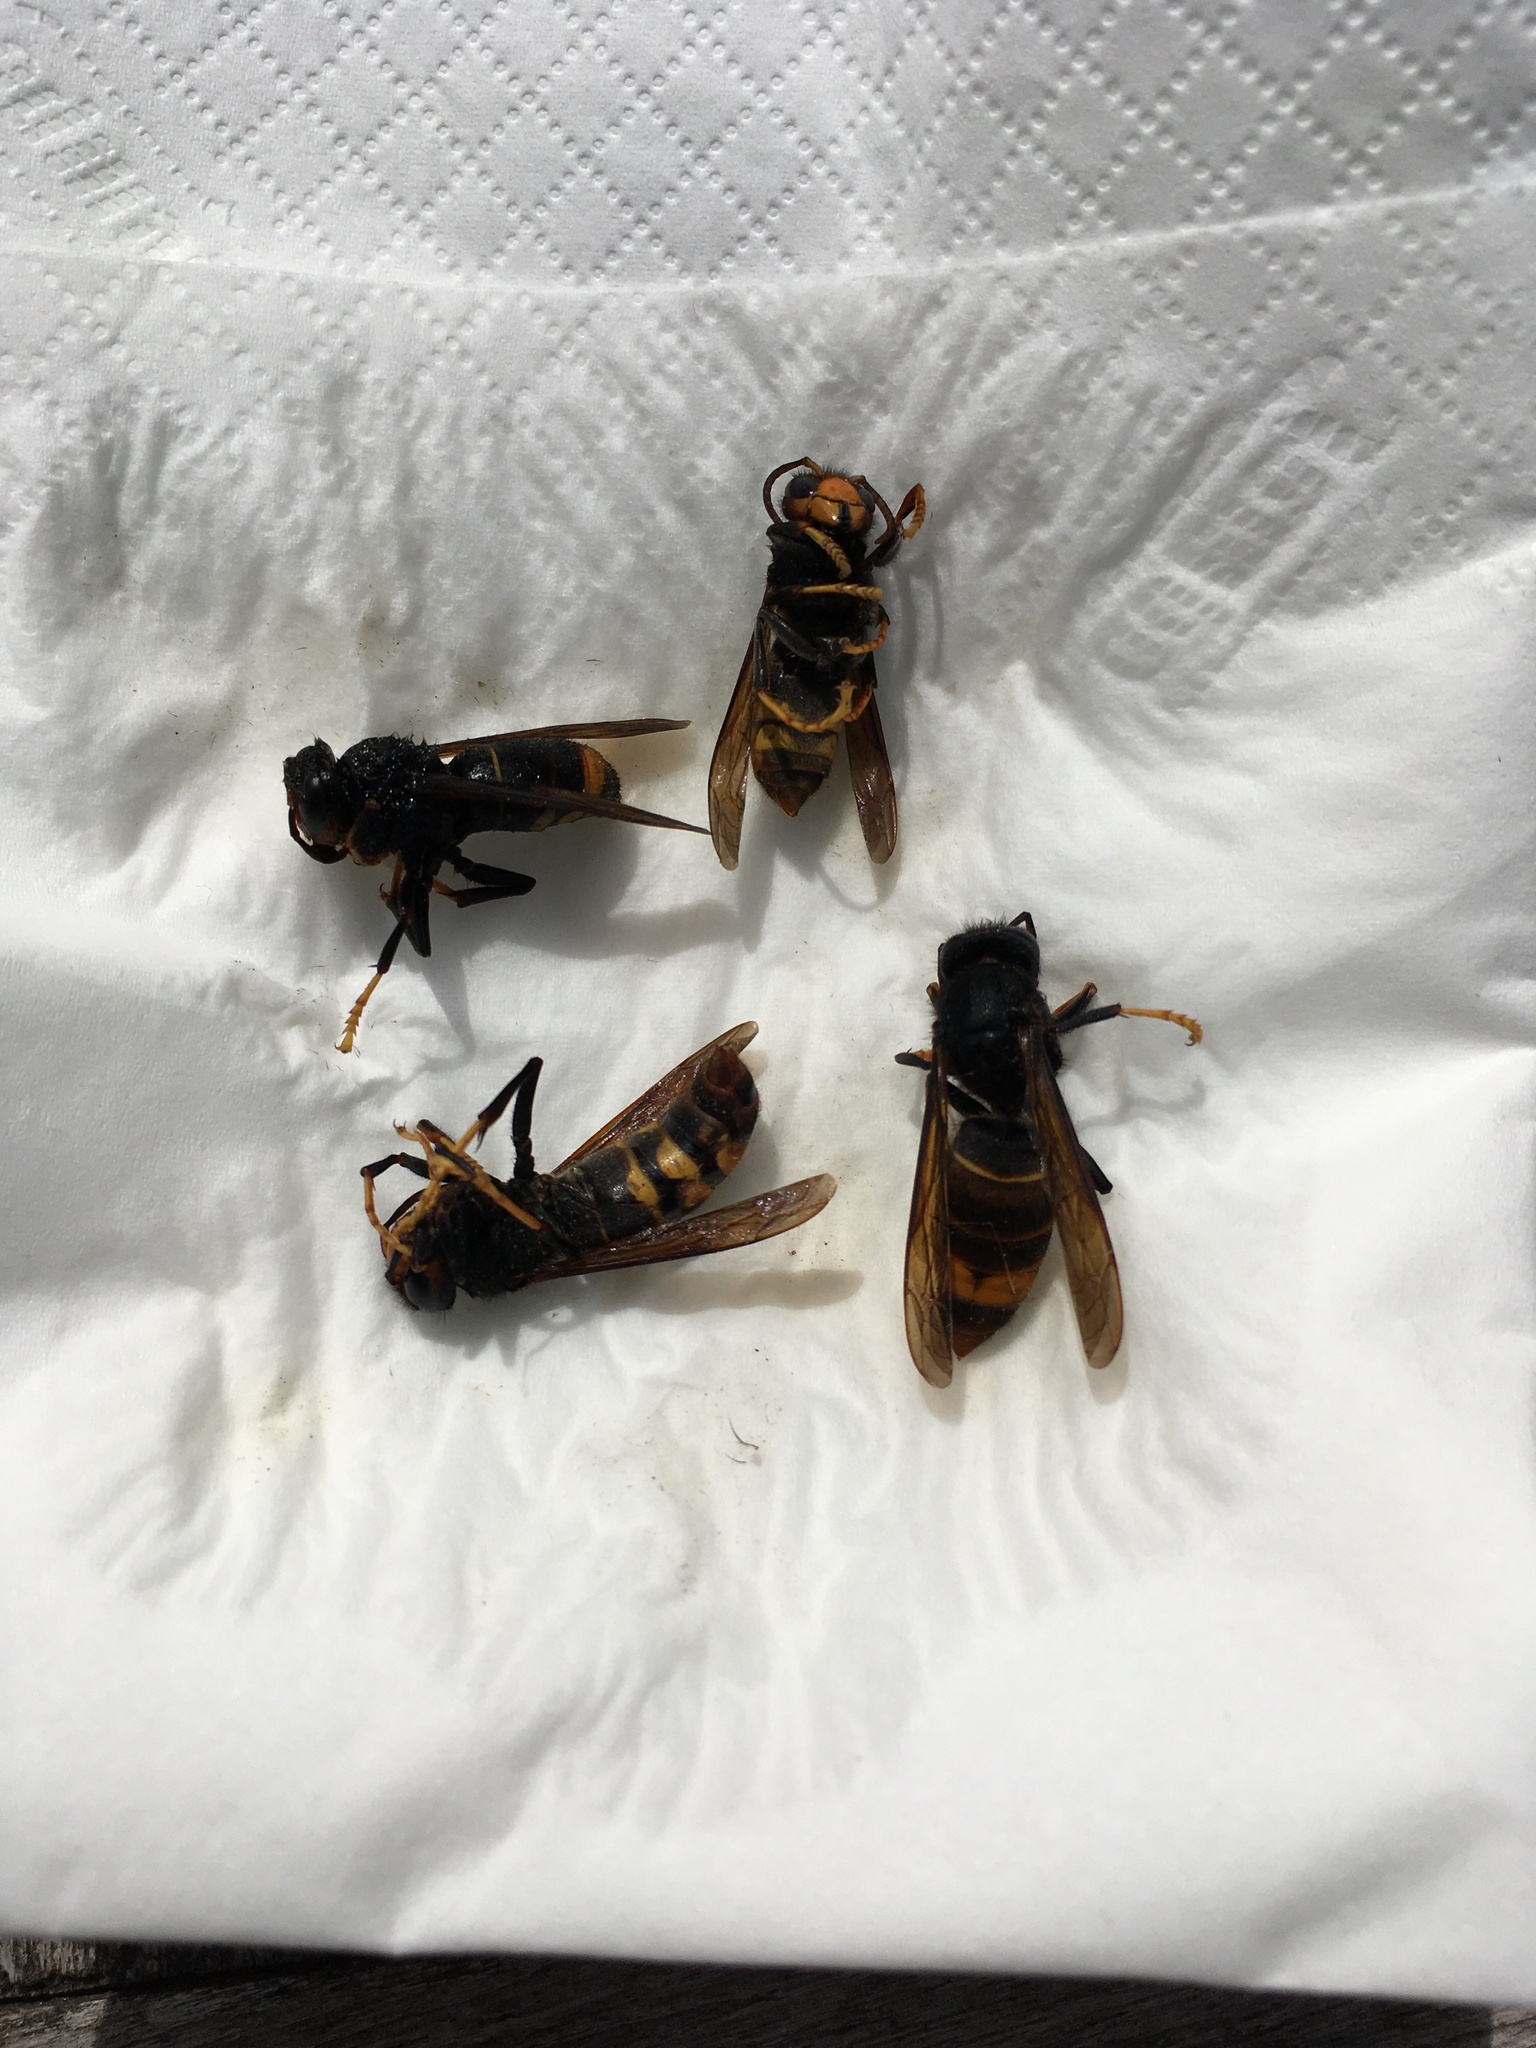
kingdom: Animalia
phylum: Arthropoda
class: Insecta
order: Hymenoptera
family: Vespidae
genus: Vespa
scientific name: Vespa velutina
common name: Asian hornet
